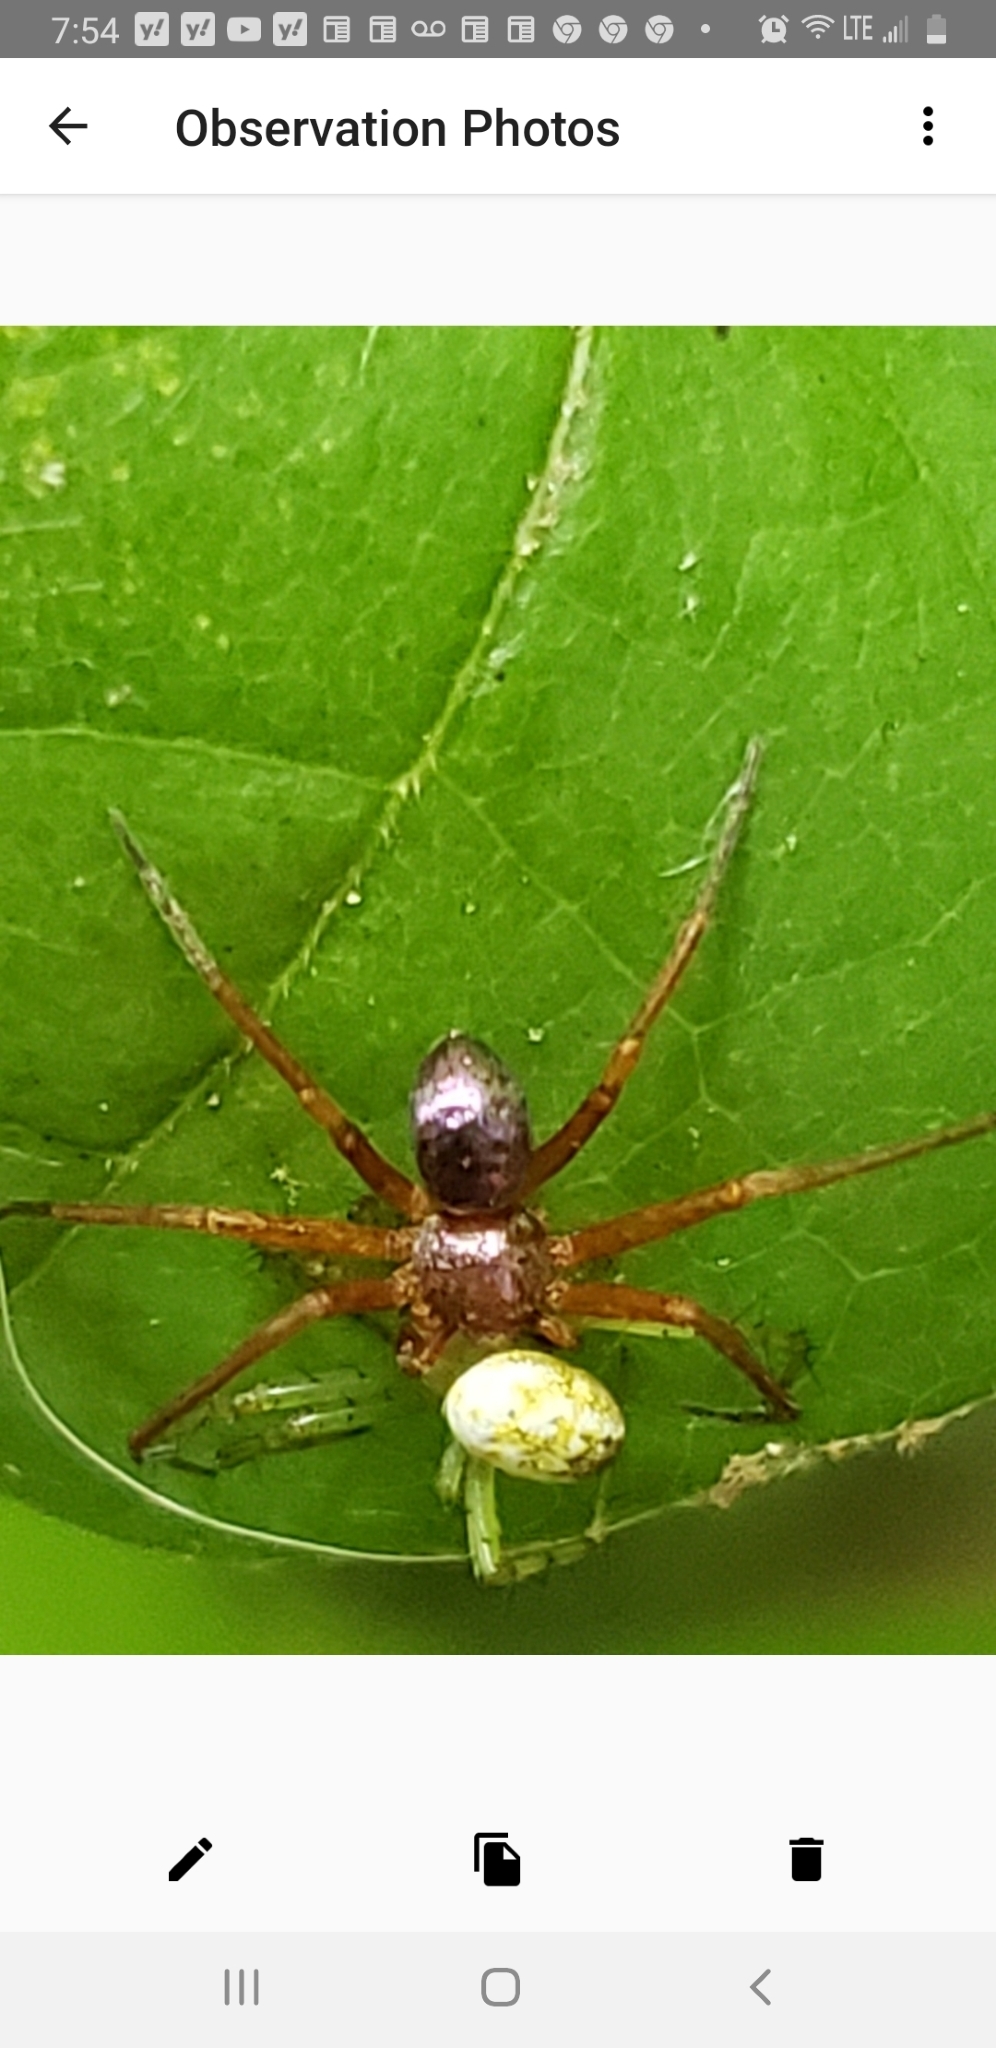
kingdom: Animalia
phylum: Arthropoda
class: Arachnida
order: Araneae
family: Philodromidae
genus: Philodromus
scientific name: Philodromus marxi
